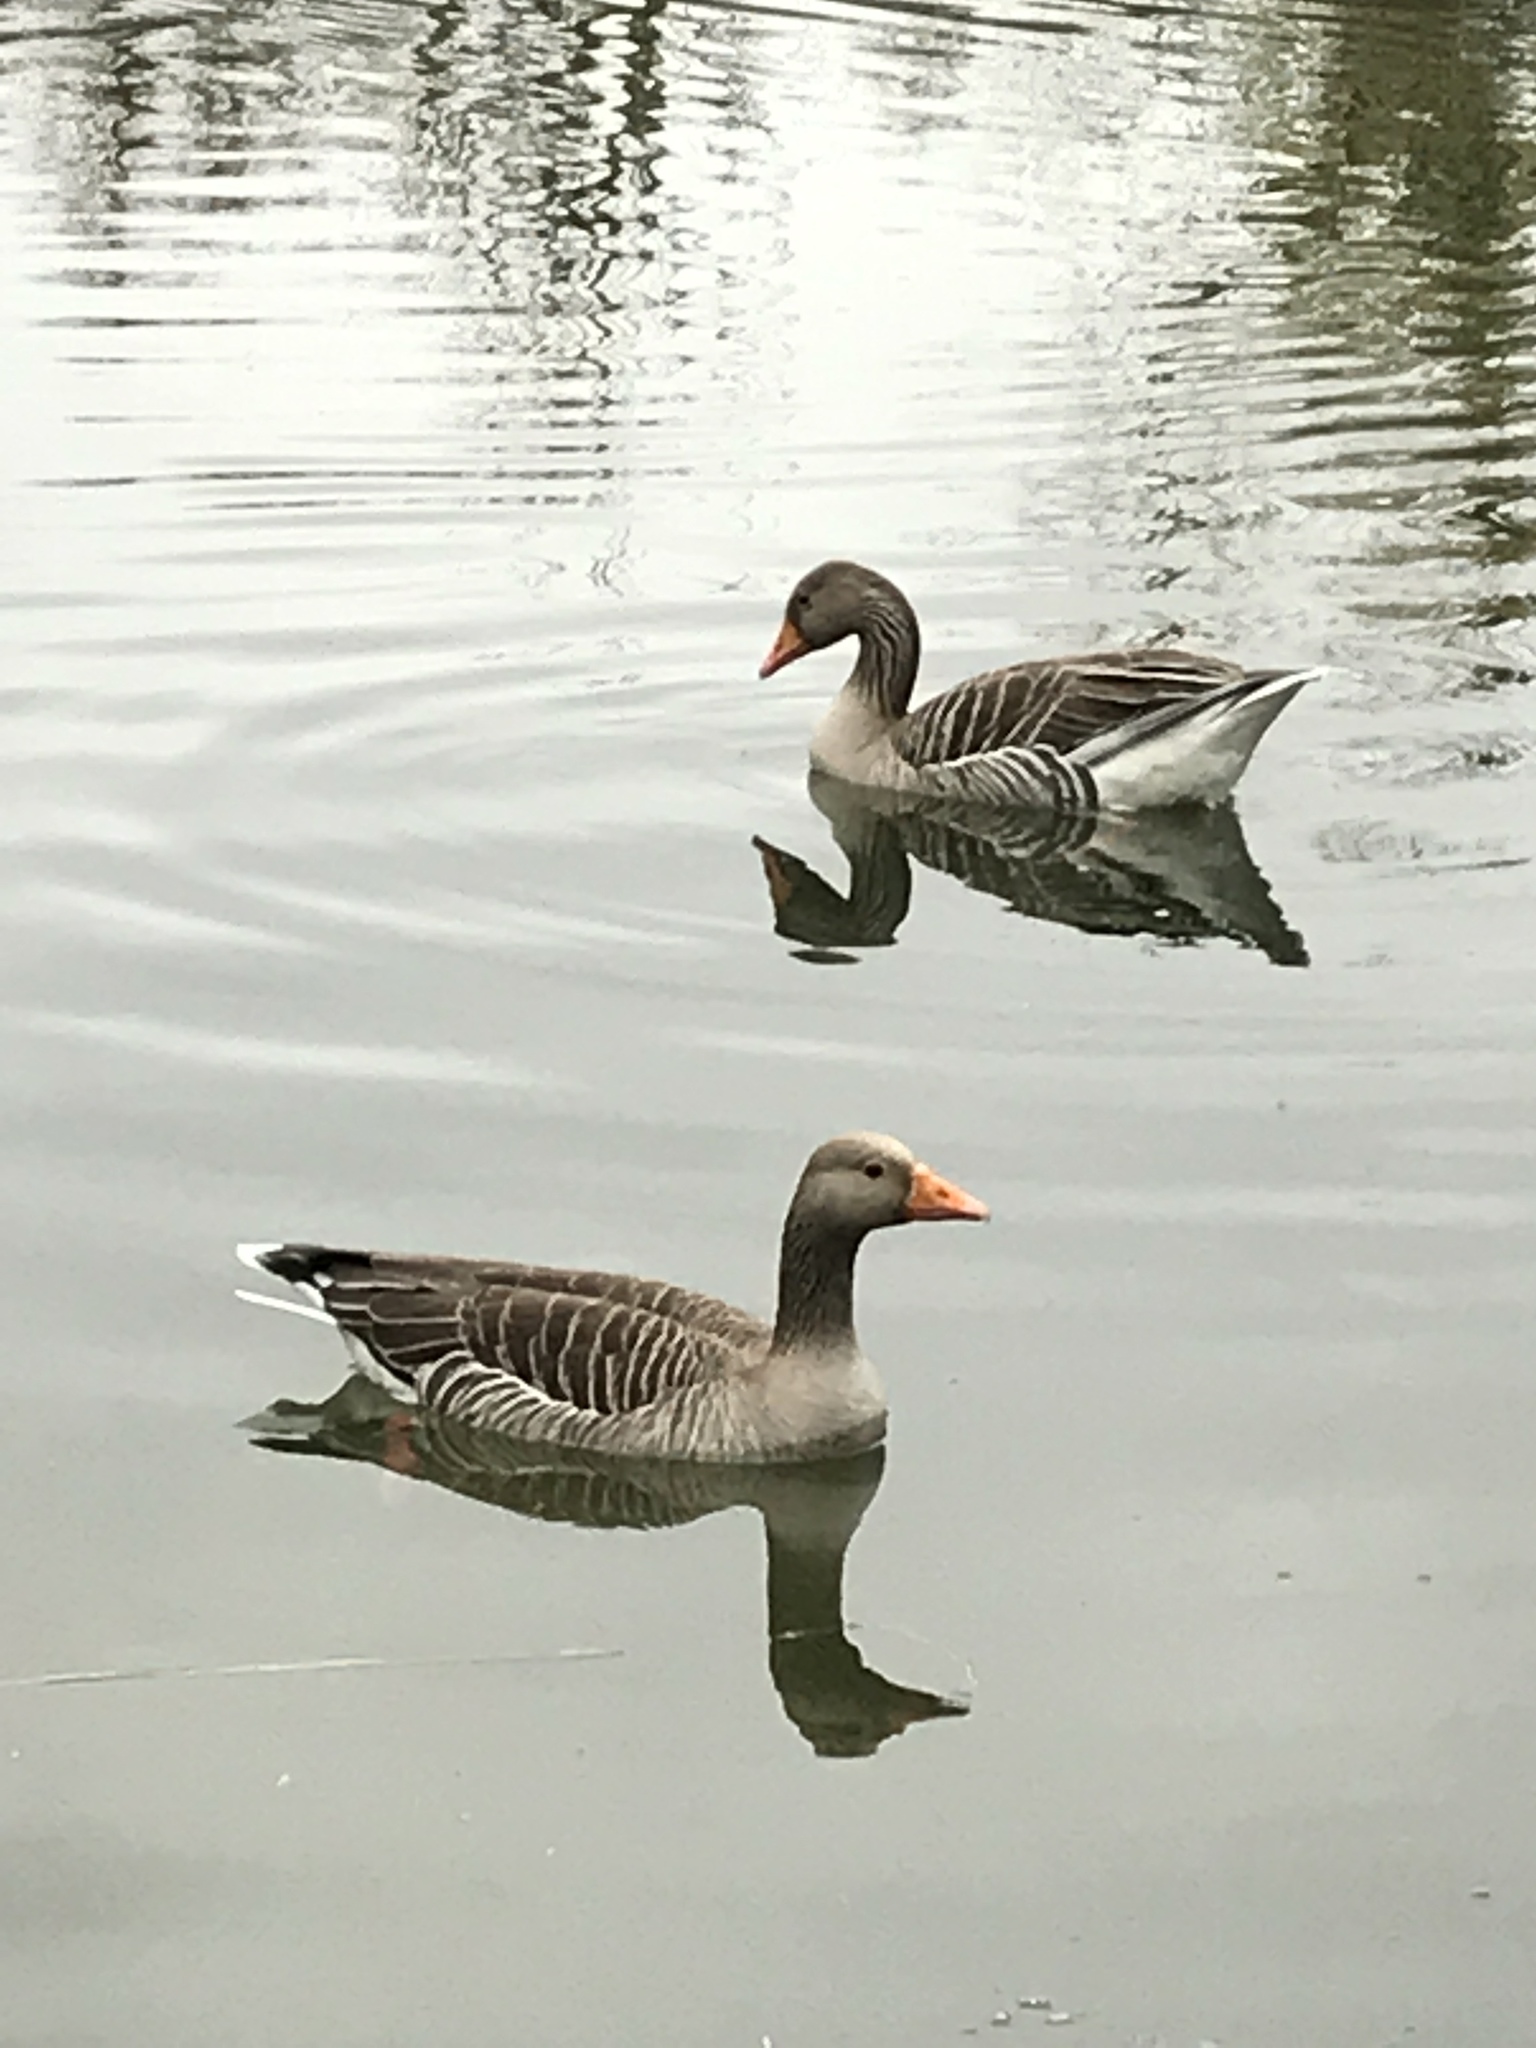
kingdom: Animalia
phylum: Chordata
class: Aves
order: Anseriformes
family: Anatidae
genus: Anser
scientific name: Anser anser
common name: Greylag goose
